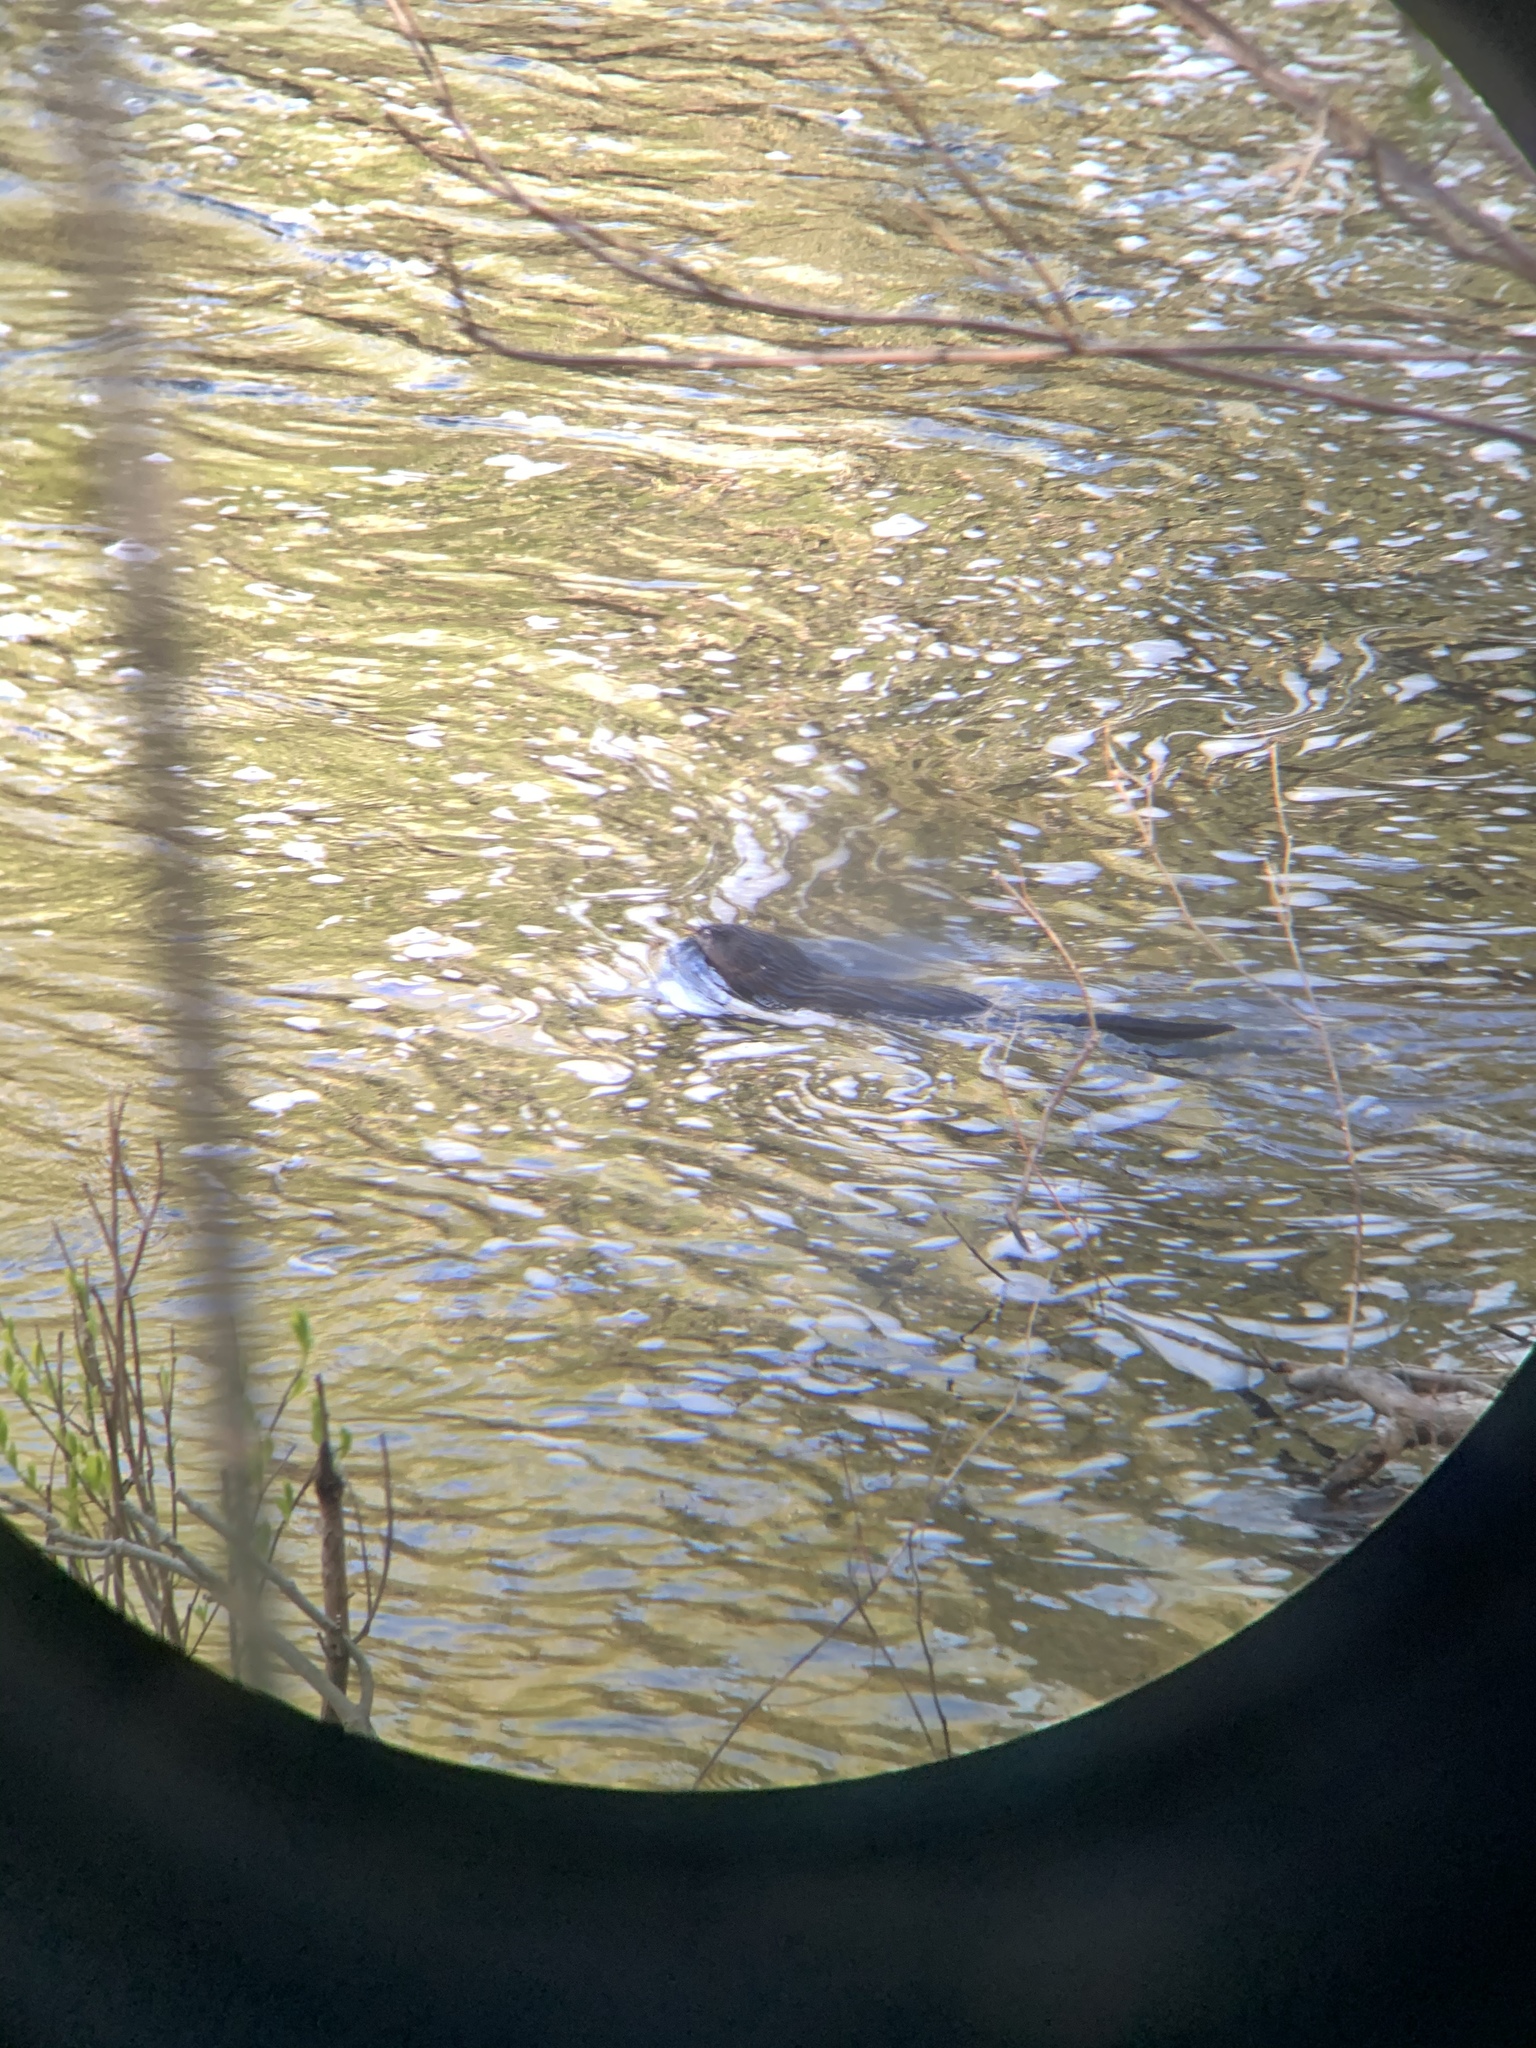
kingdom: Animalia
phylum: Chordata
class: Mammalia
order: Rodentia
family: Cricetidae
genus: Ondatra
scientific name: Ondatra zibethicus
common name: Muskrat
